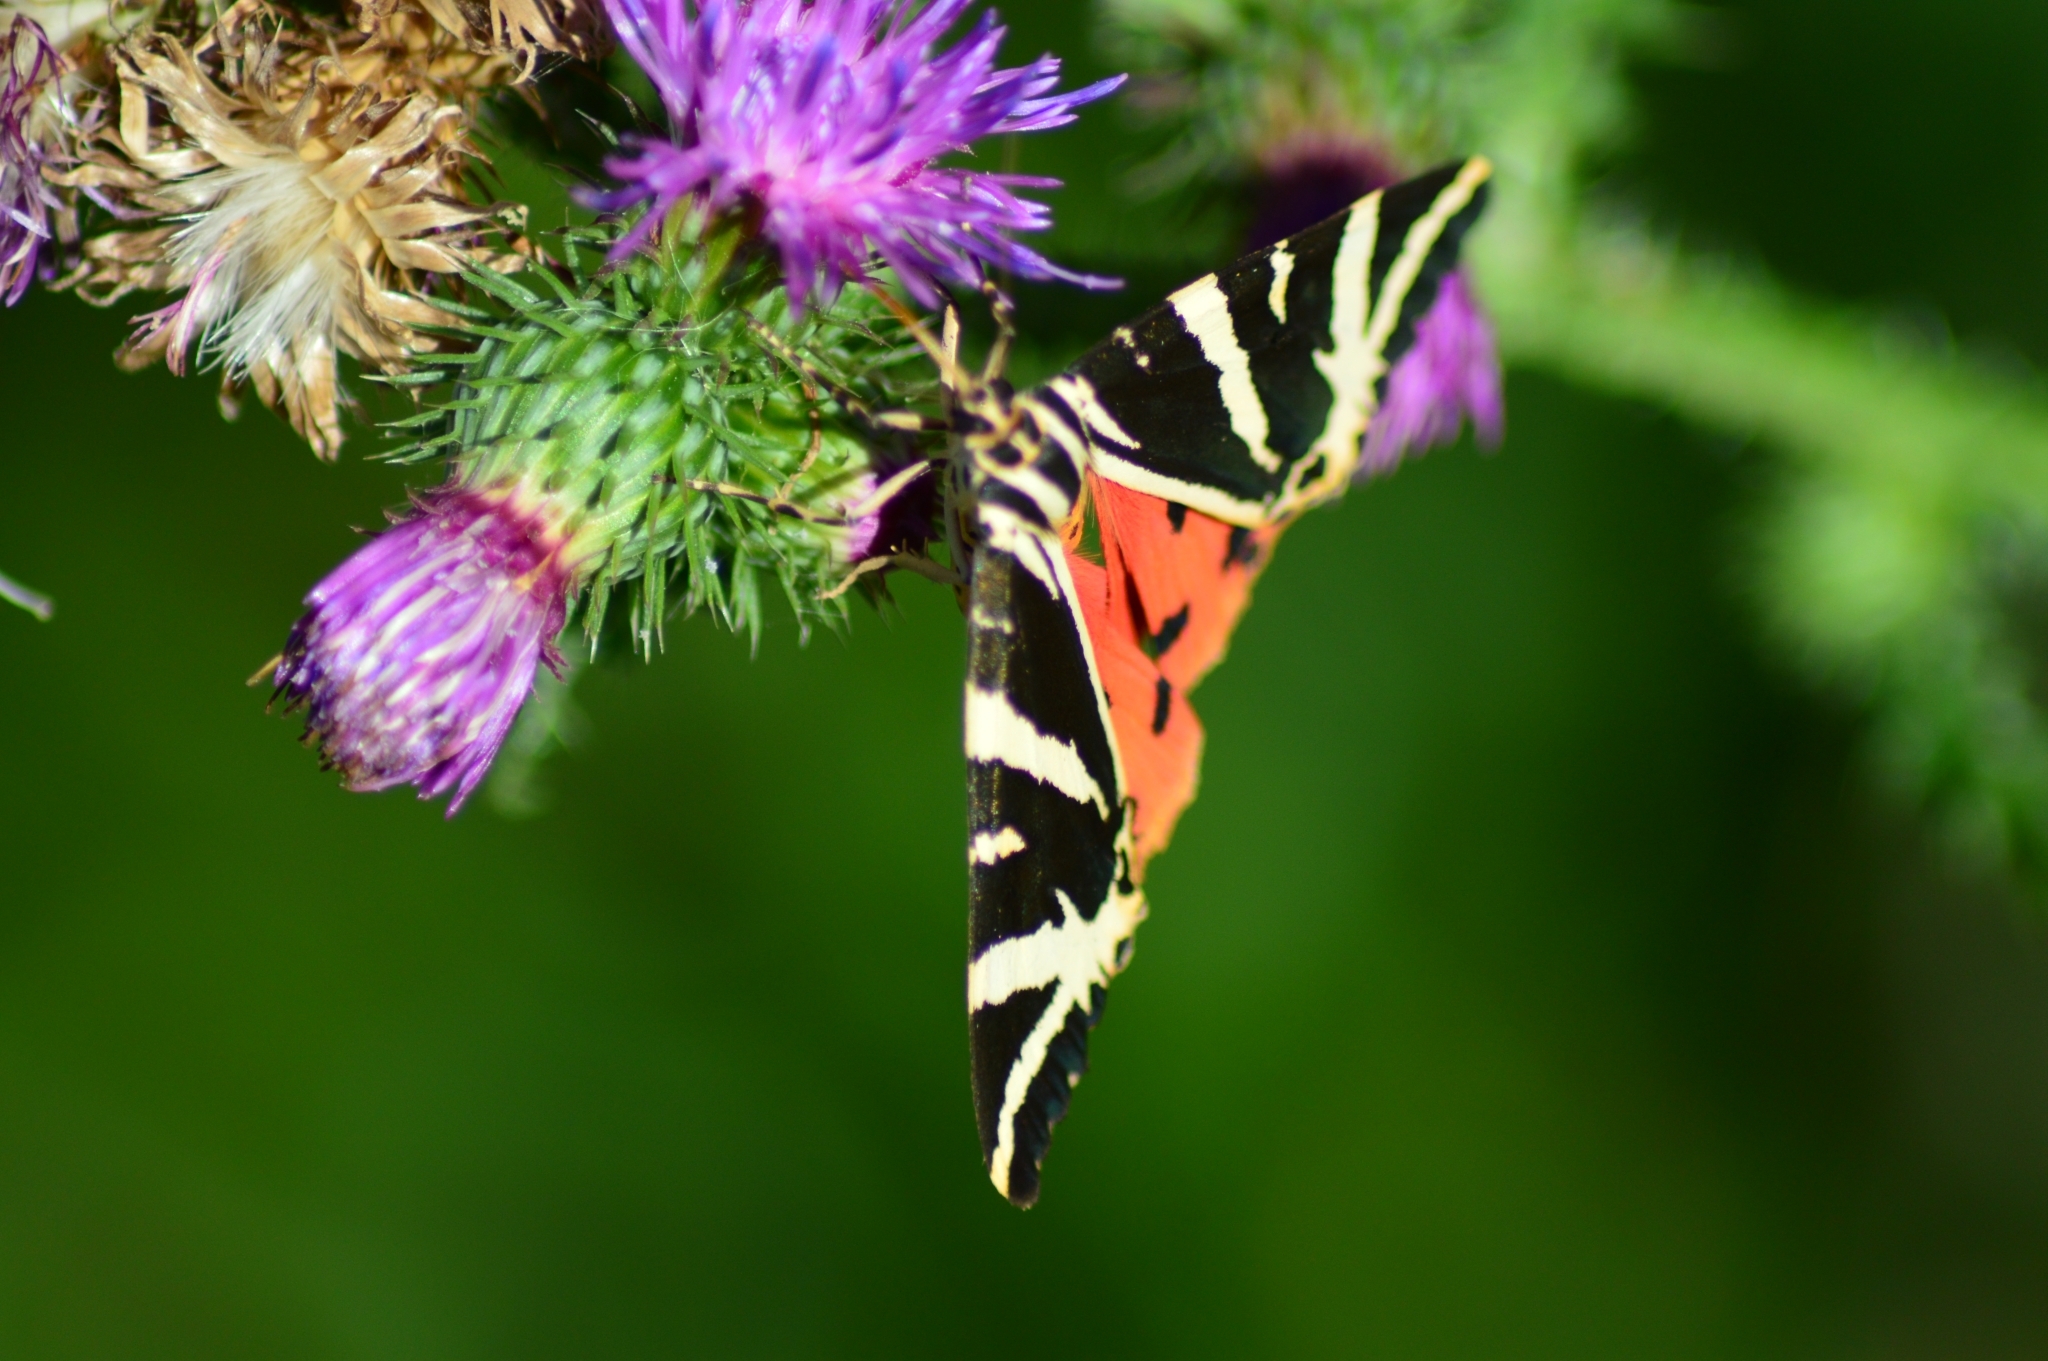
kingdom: Animalia
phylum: Arthropoda
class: Insecta
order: Lepidoptera
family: Erebidae
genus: Euplagia
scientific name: Euplagia quadripunctaria
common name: Jersey tiger
